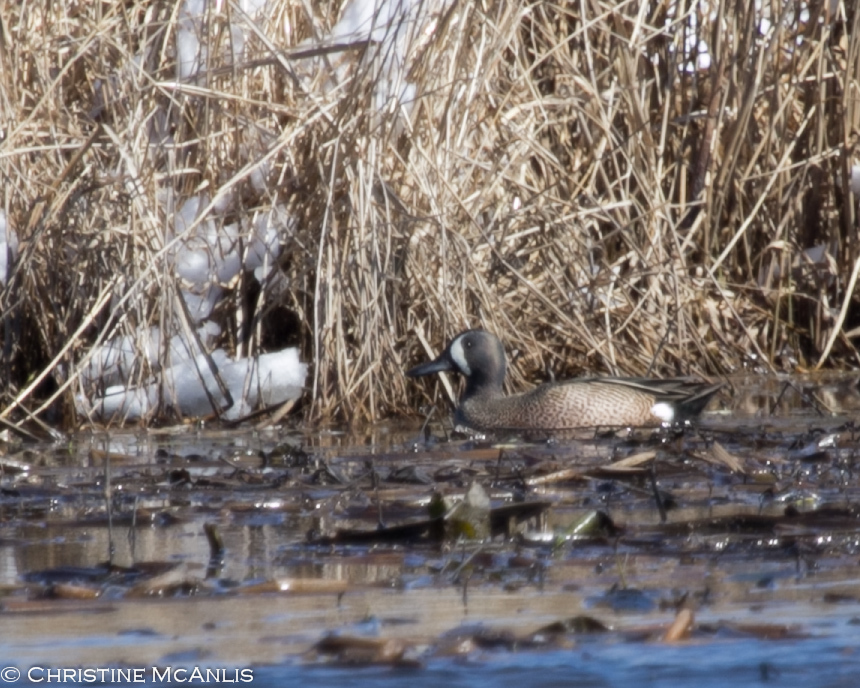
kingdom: Animalia
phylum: Chordata
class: Aves
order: Anseriformes
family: Anatidae
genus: Spatula
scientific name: Spatula discors
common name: Blue-winged teal
